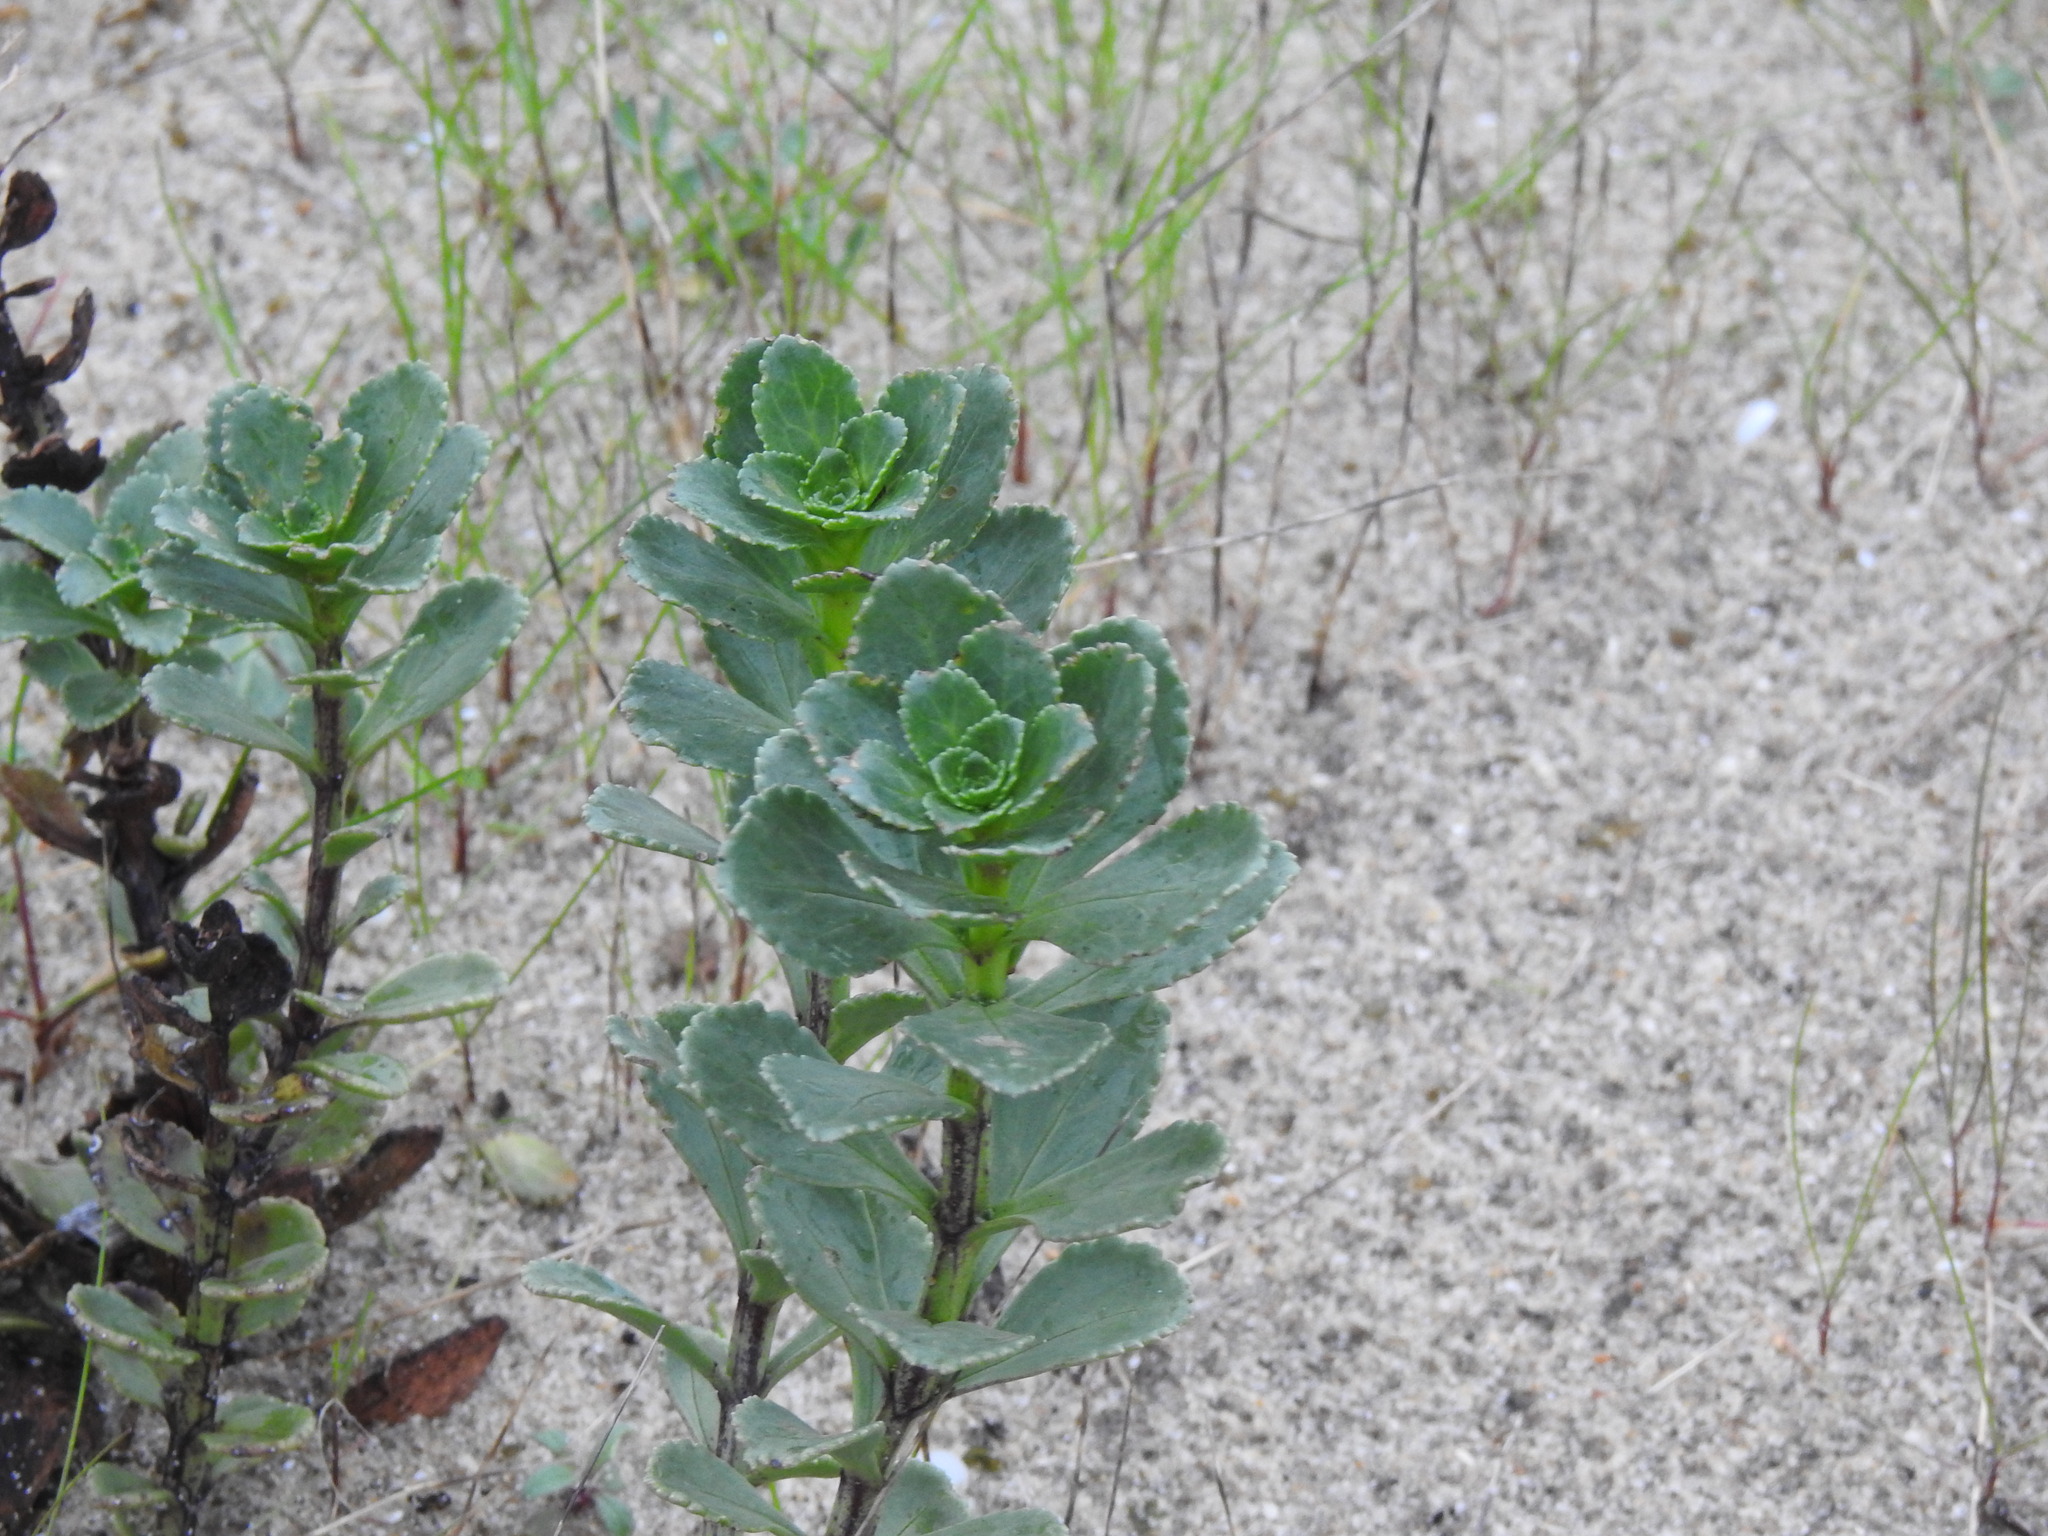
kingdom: Plantae
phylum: Tracheophyta
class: Magnoliopsida
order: Lamiales
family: Scrophulariaceae
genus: Scrophularia
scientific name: Scrophularia frutescens
